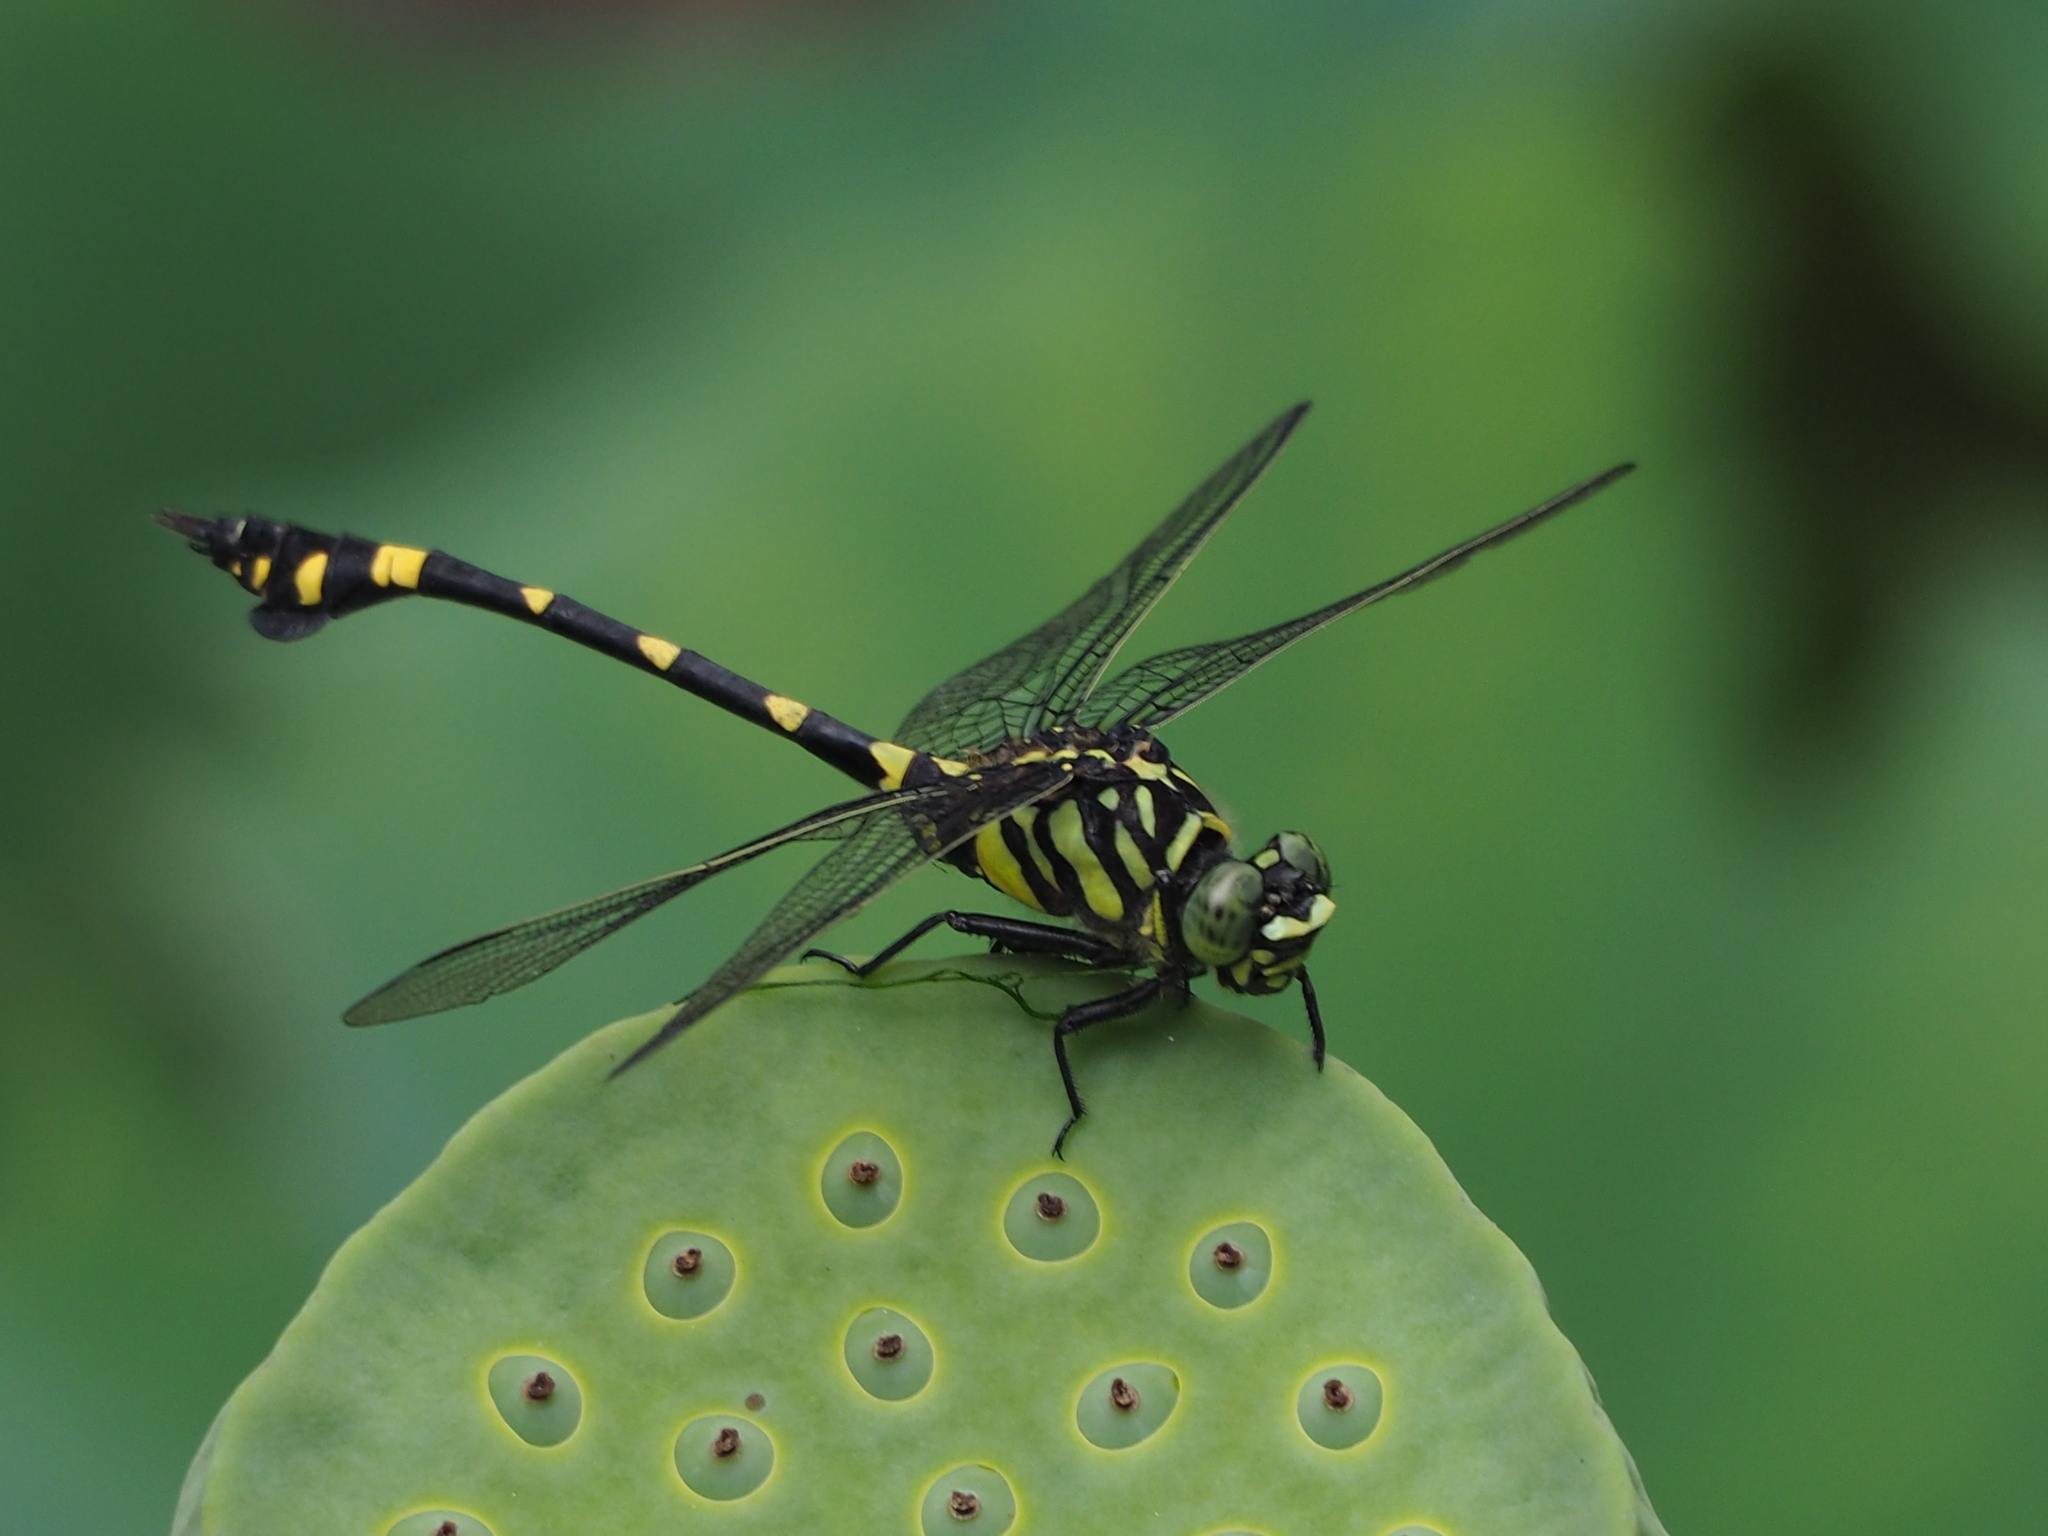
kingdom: Animalia
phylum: Arthropoda
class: Insecta
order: Odonata
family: Gomphidae
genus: Ictinogomphus
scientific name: Ictinogomphus rapax
